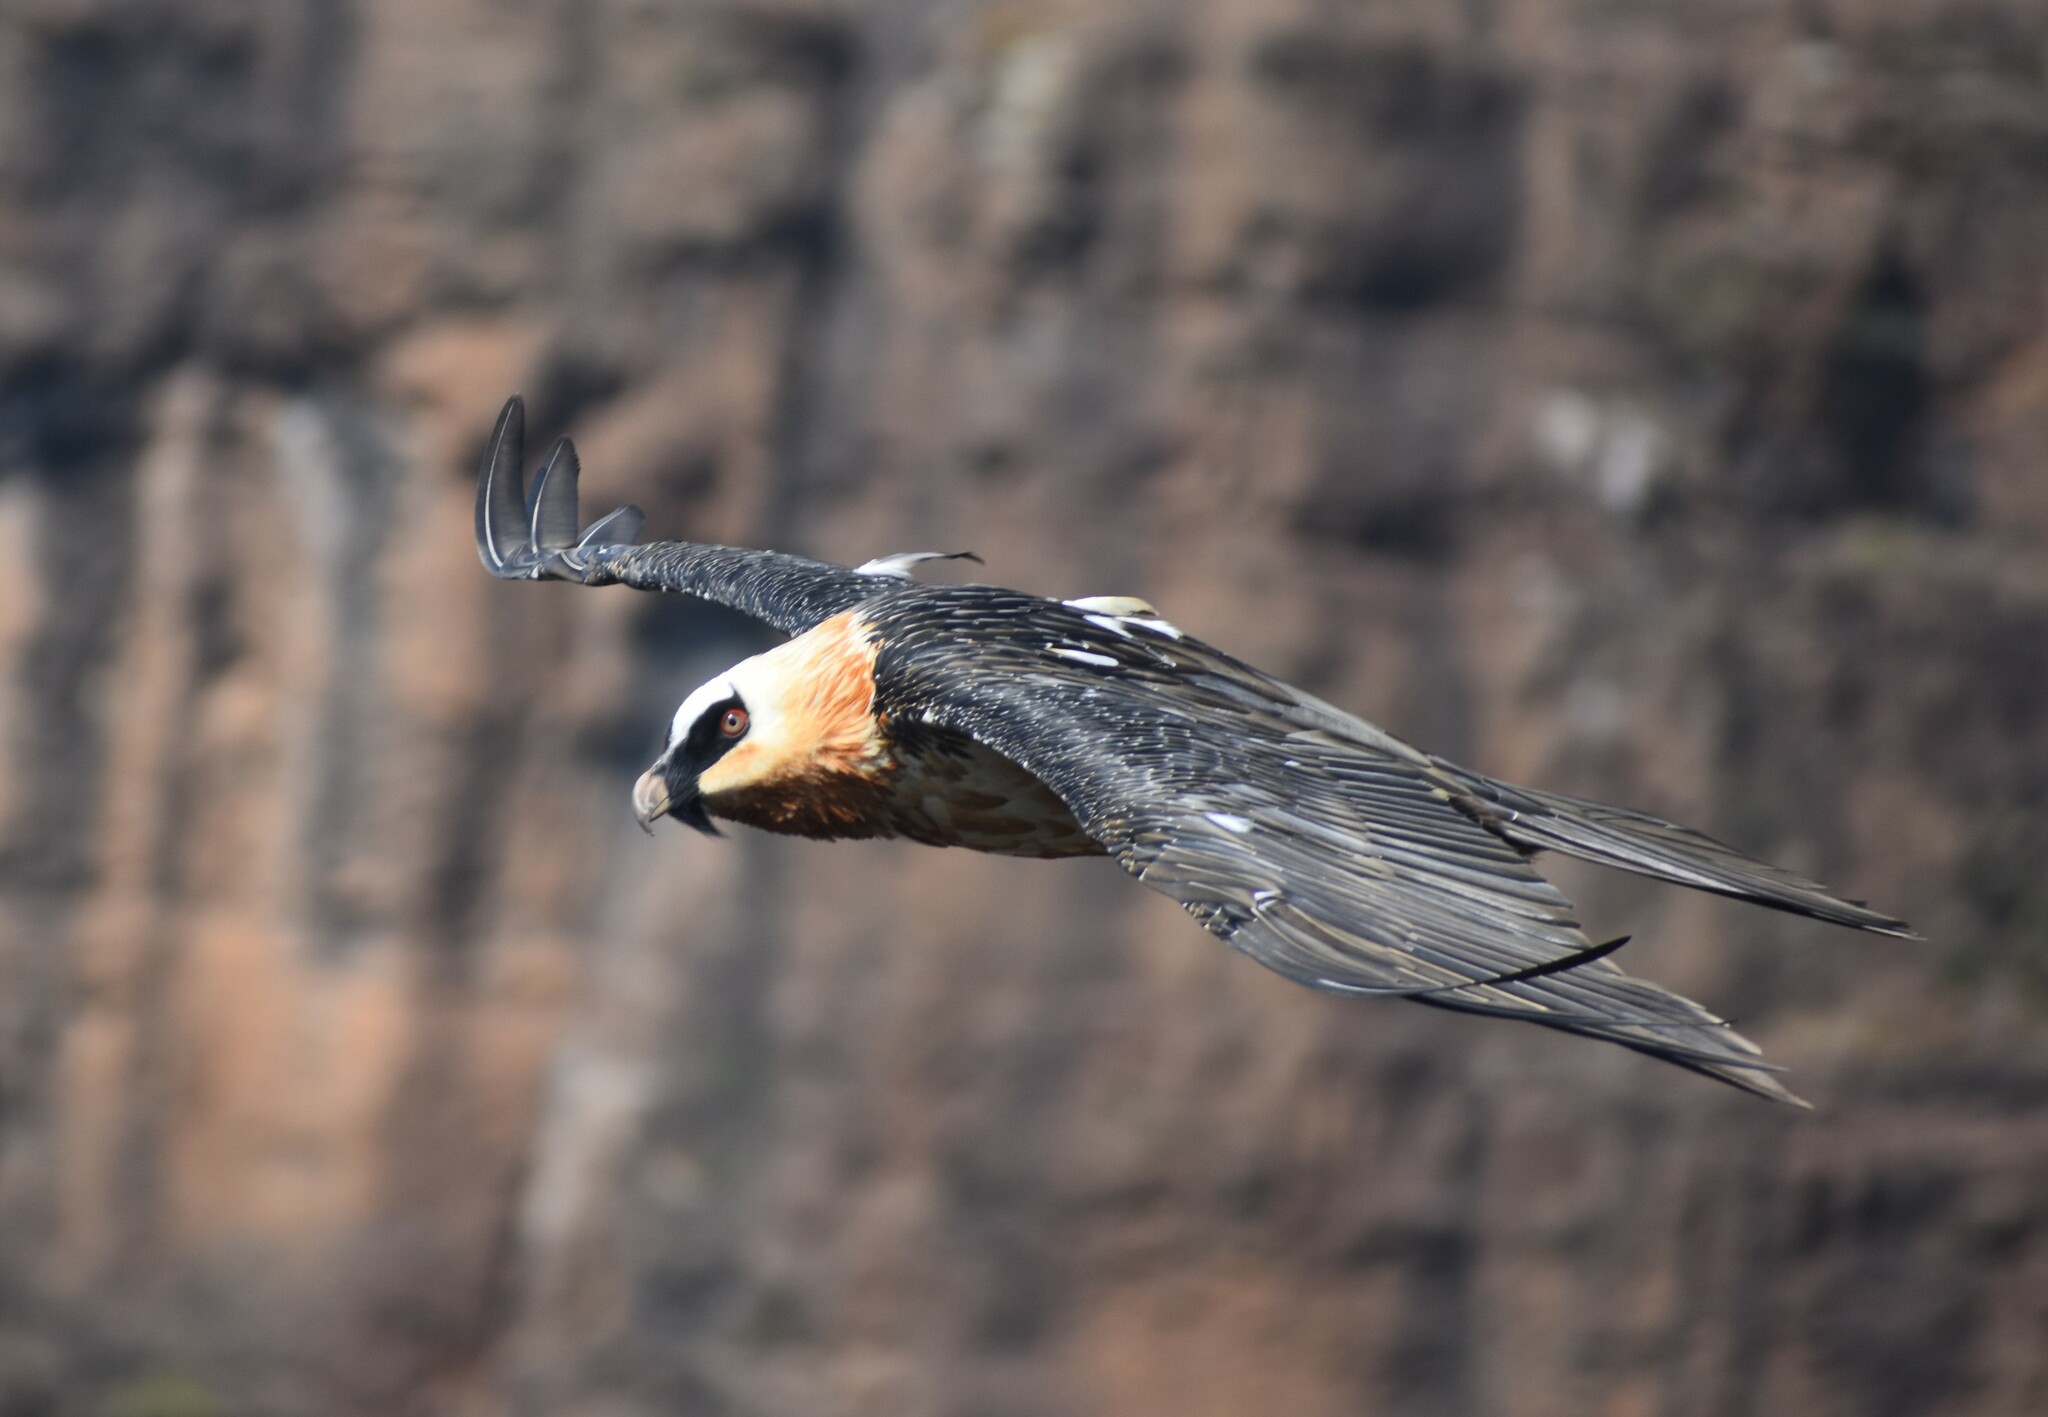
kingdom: Animalia
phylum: Chordata
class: Aves
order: Accipitriformes
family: Accipitridae
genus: Gypaetus
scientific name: Gypaetus barbatus
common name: Bearded vulture
